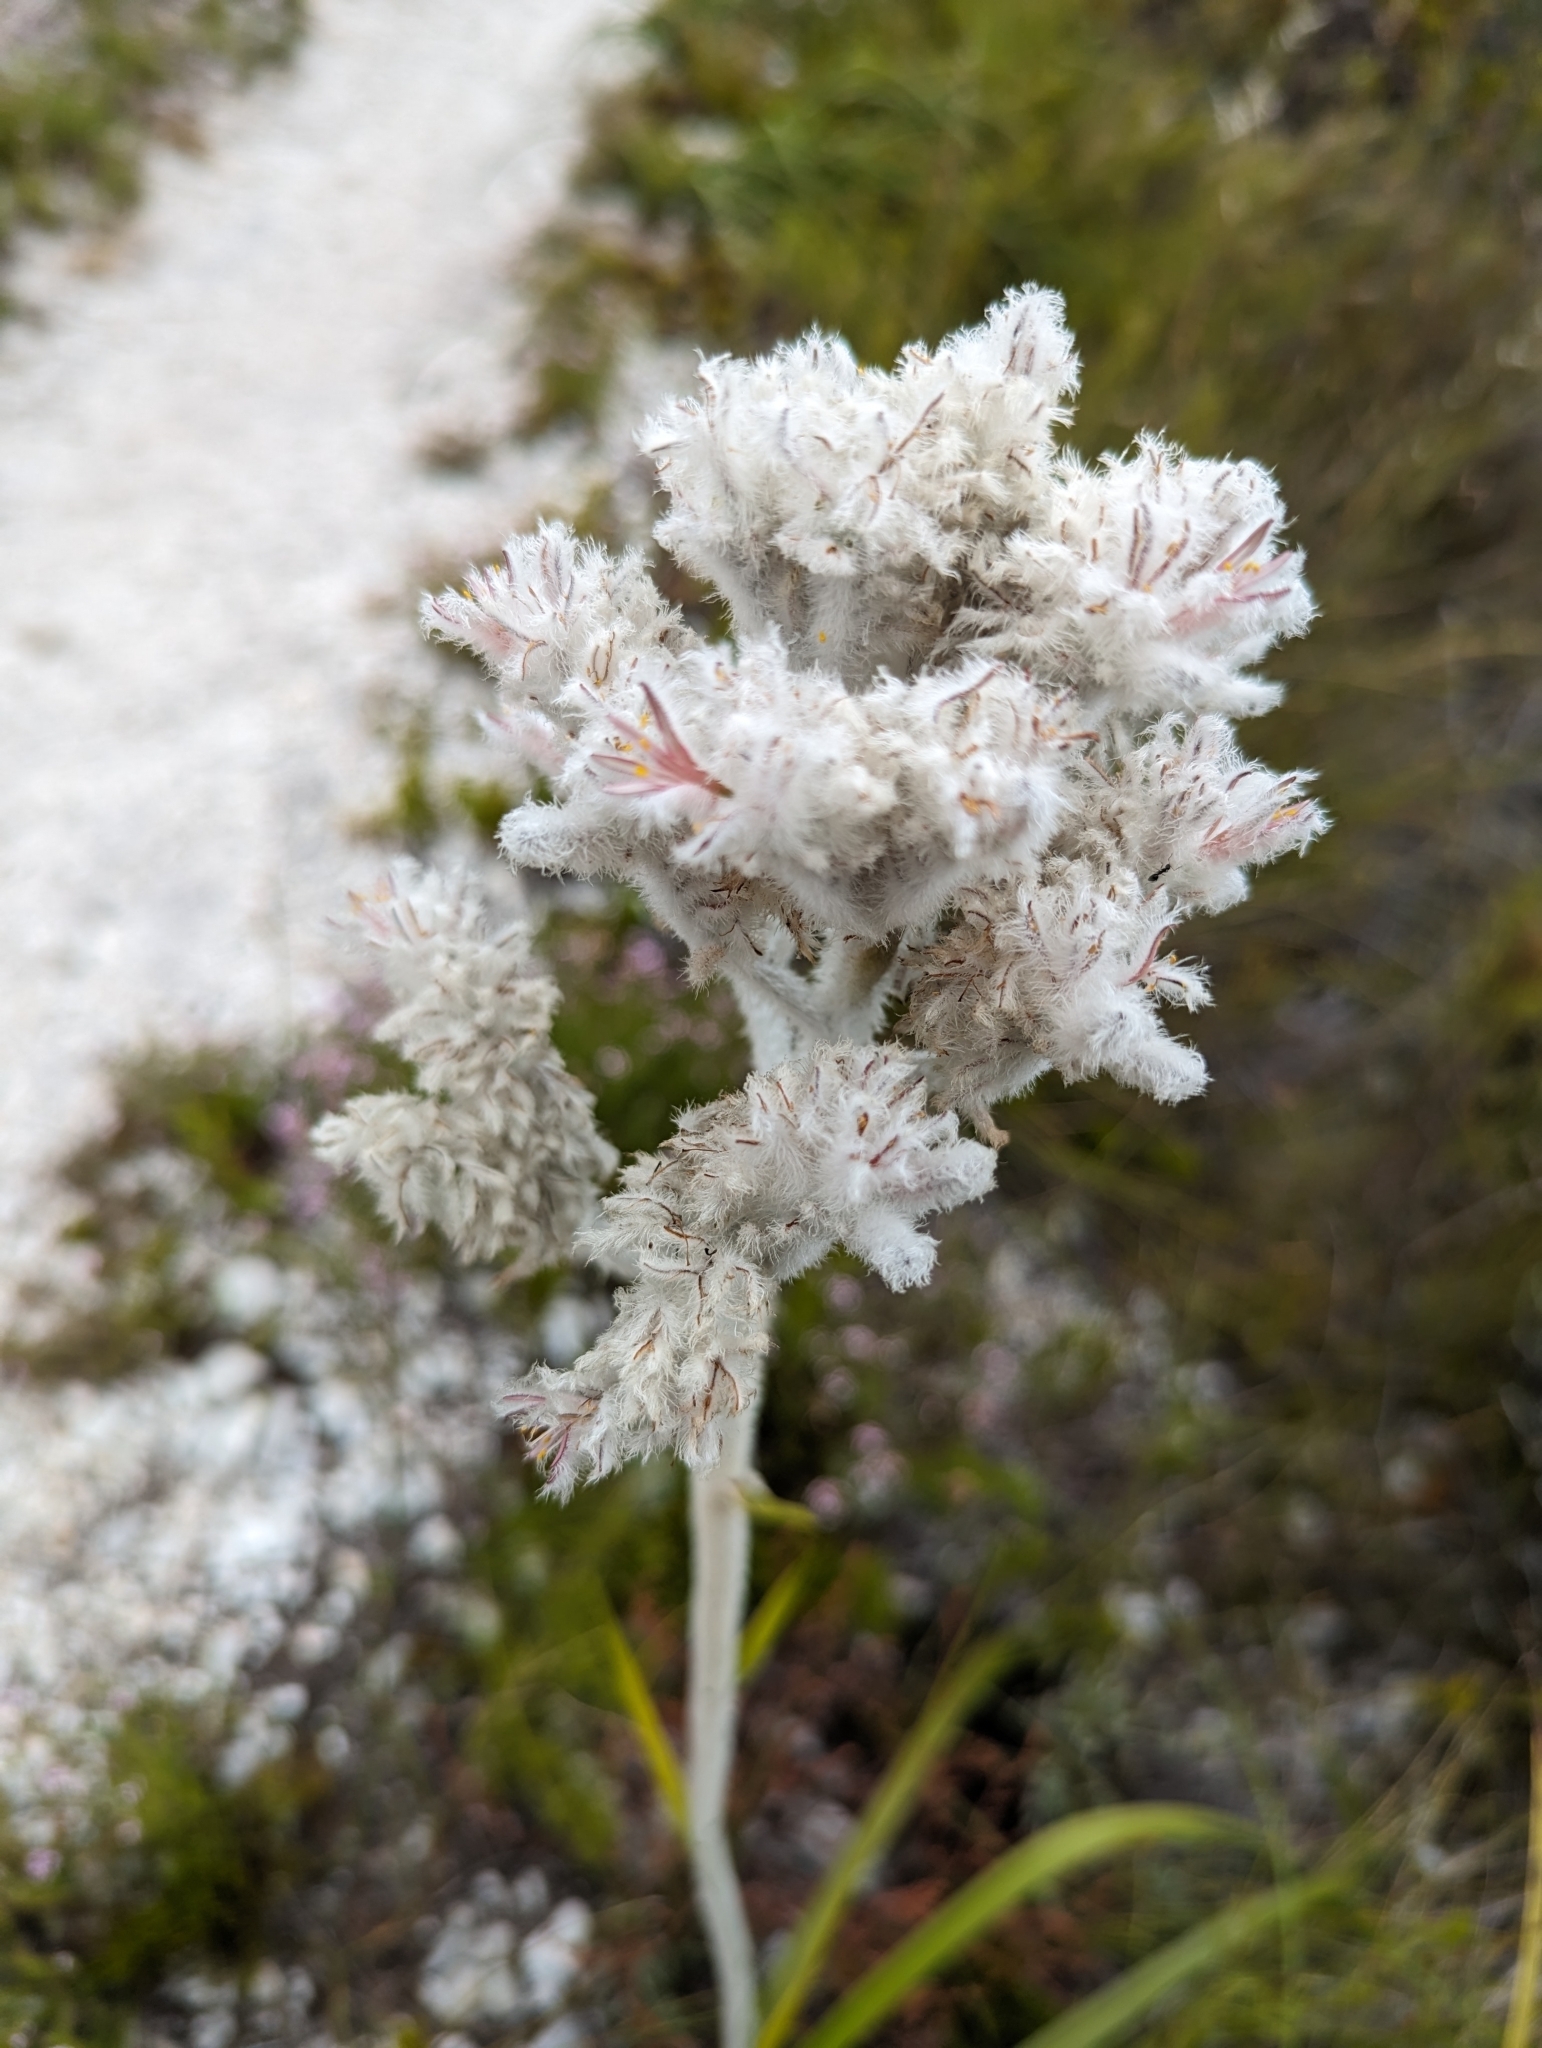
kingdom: Plantae
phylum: Tracheophyta
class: Liliopsida
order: Asparagales
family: Lanariaceae
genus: Lanaria
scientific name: Lanaria lanata
